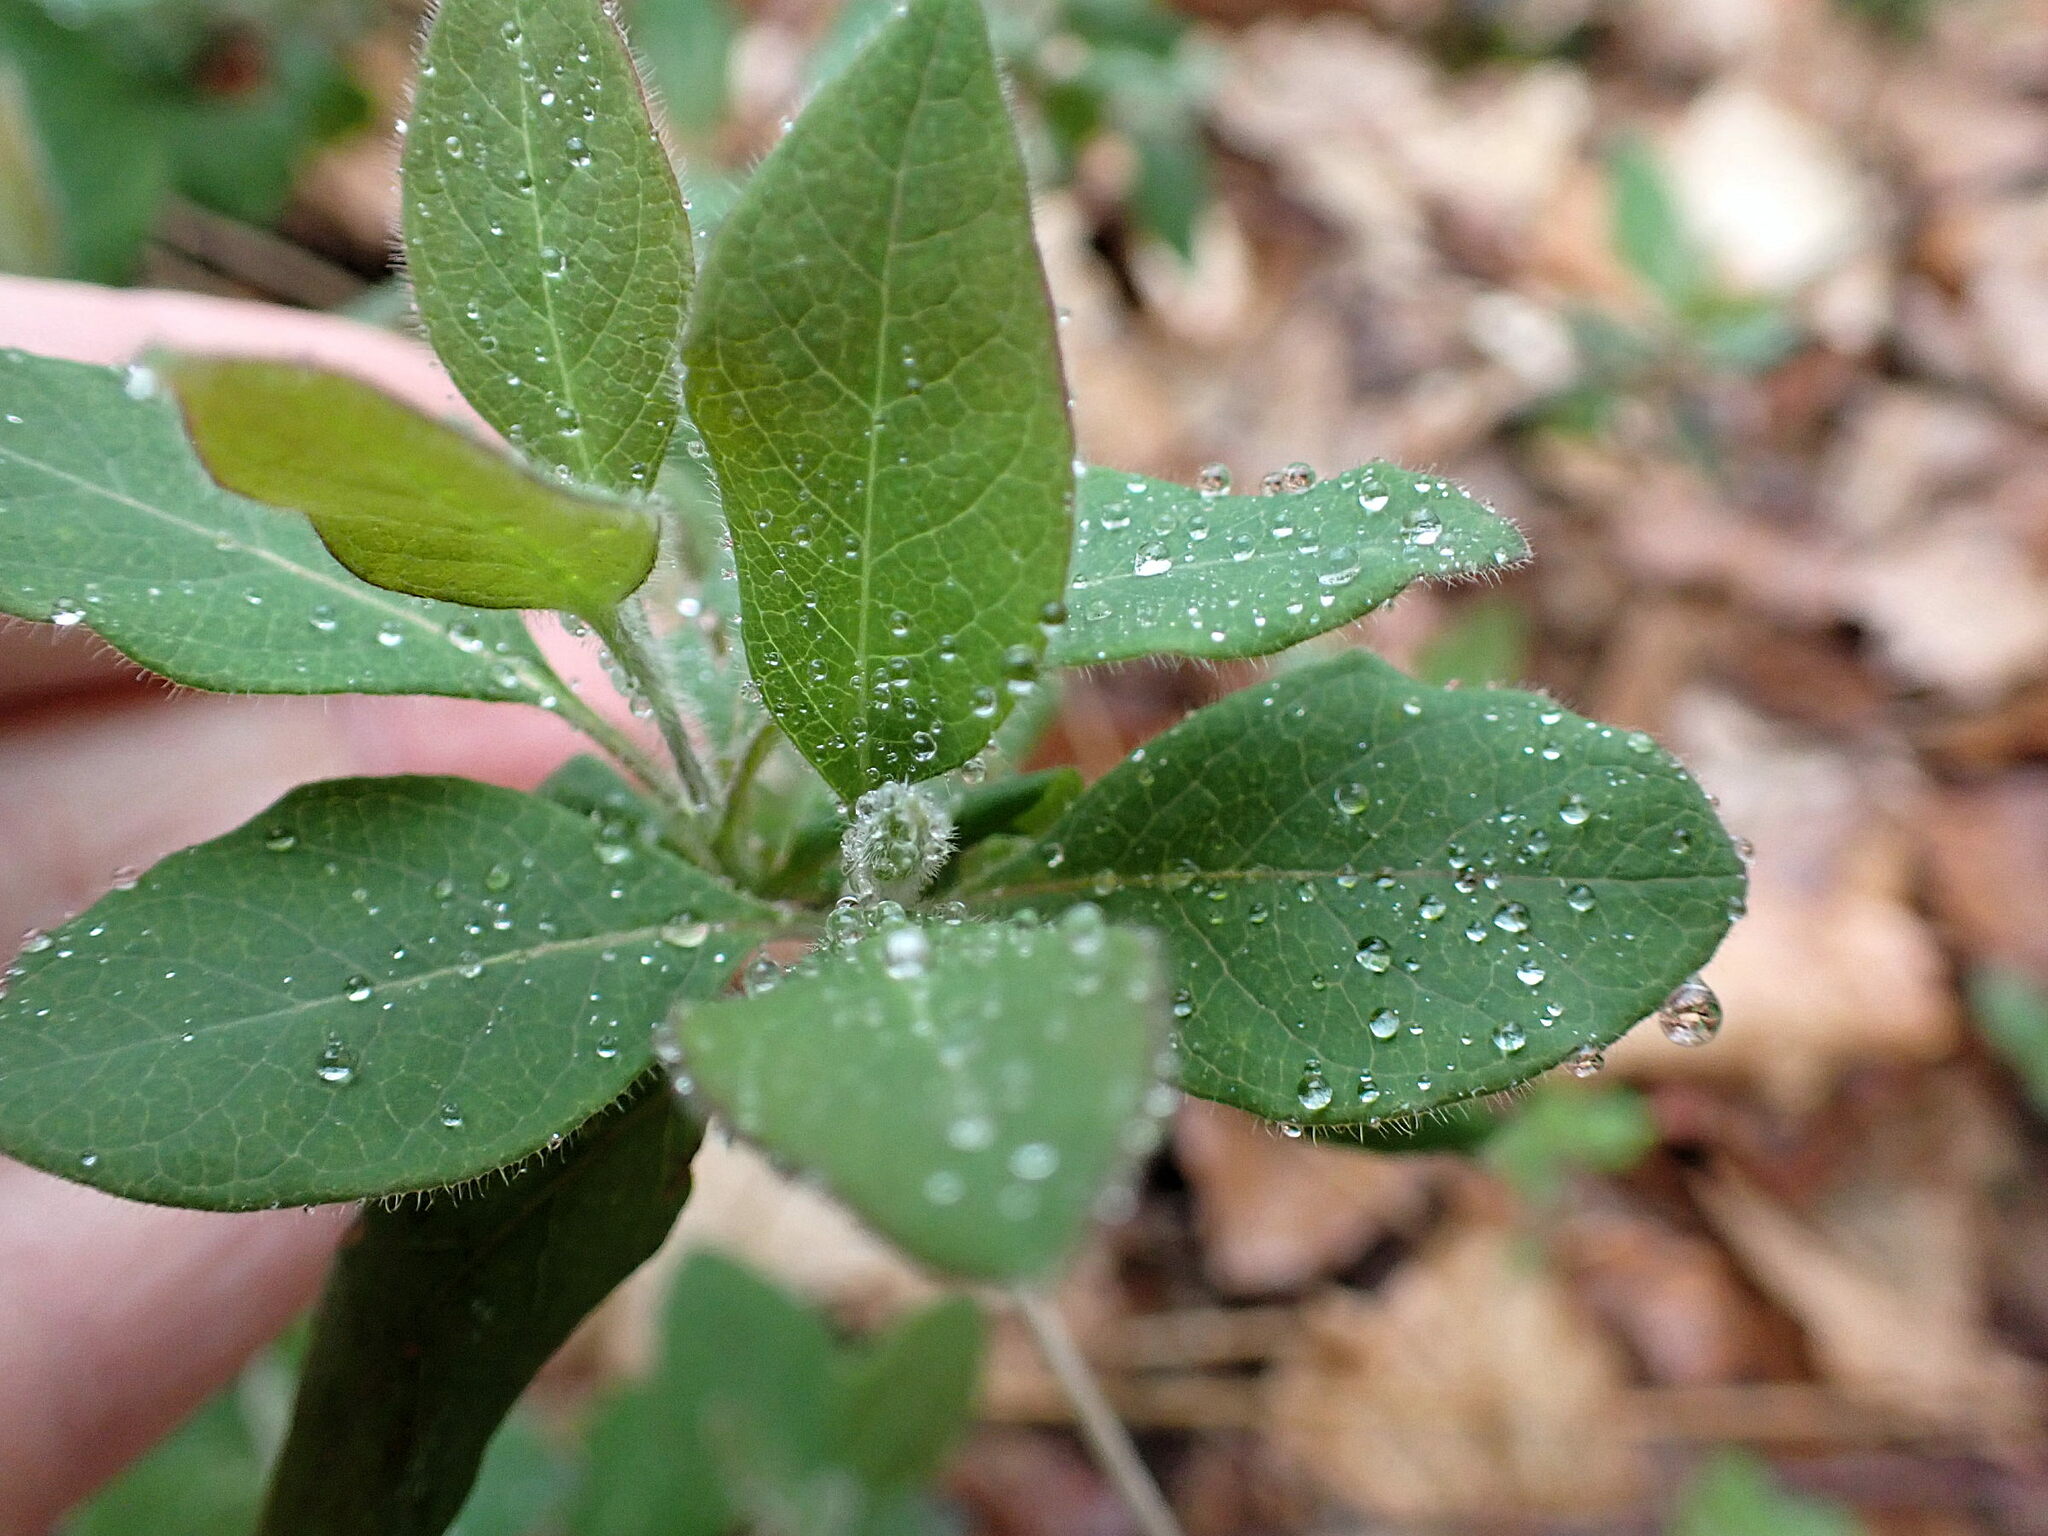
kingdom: Plantae
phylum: Tracheophyta
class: Magnoliopsida
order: Dipsacales
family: Caprifoliaceae
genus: Lonicera
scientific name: Lonicera periclymenum
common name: European honeysuckle
